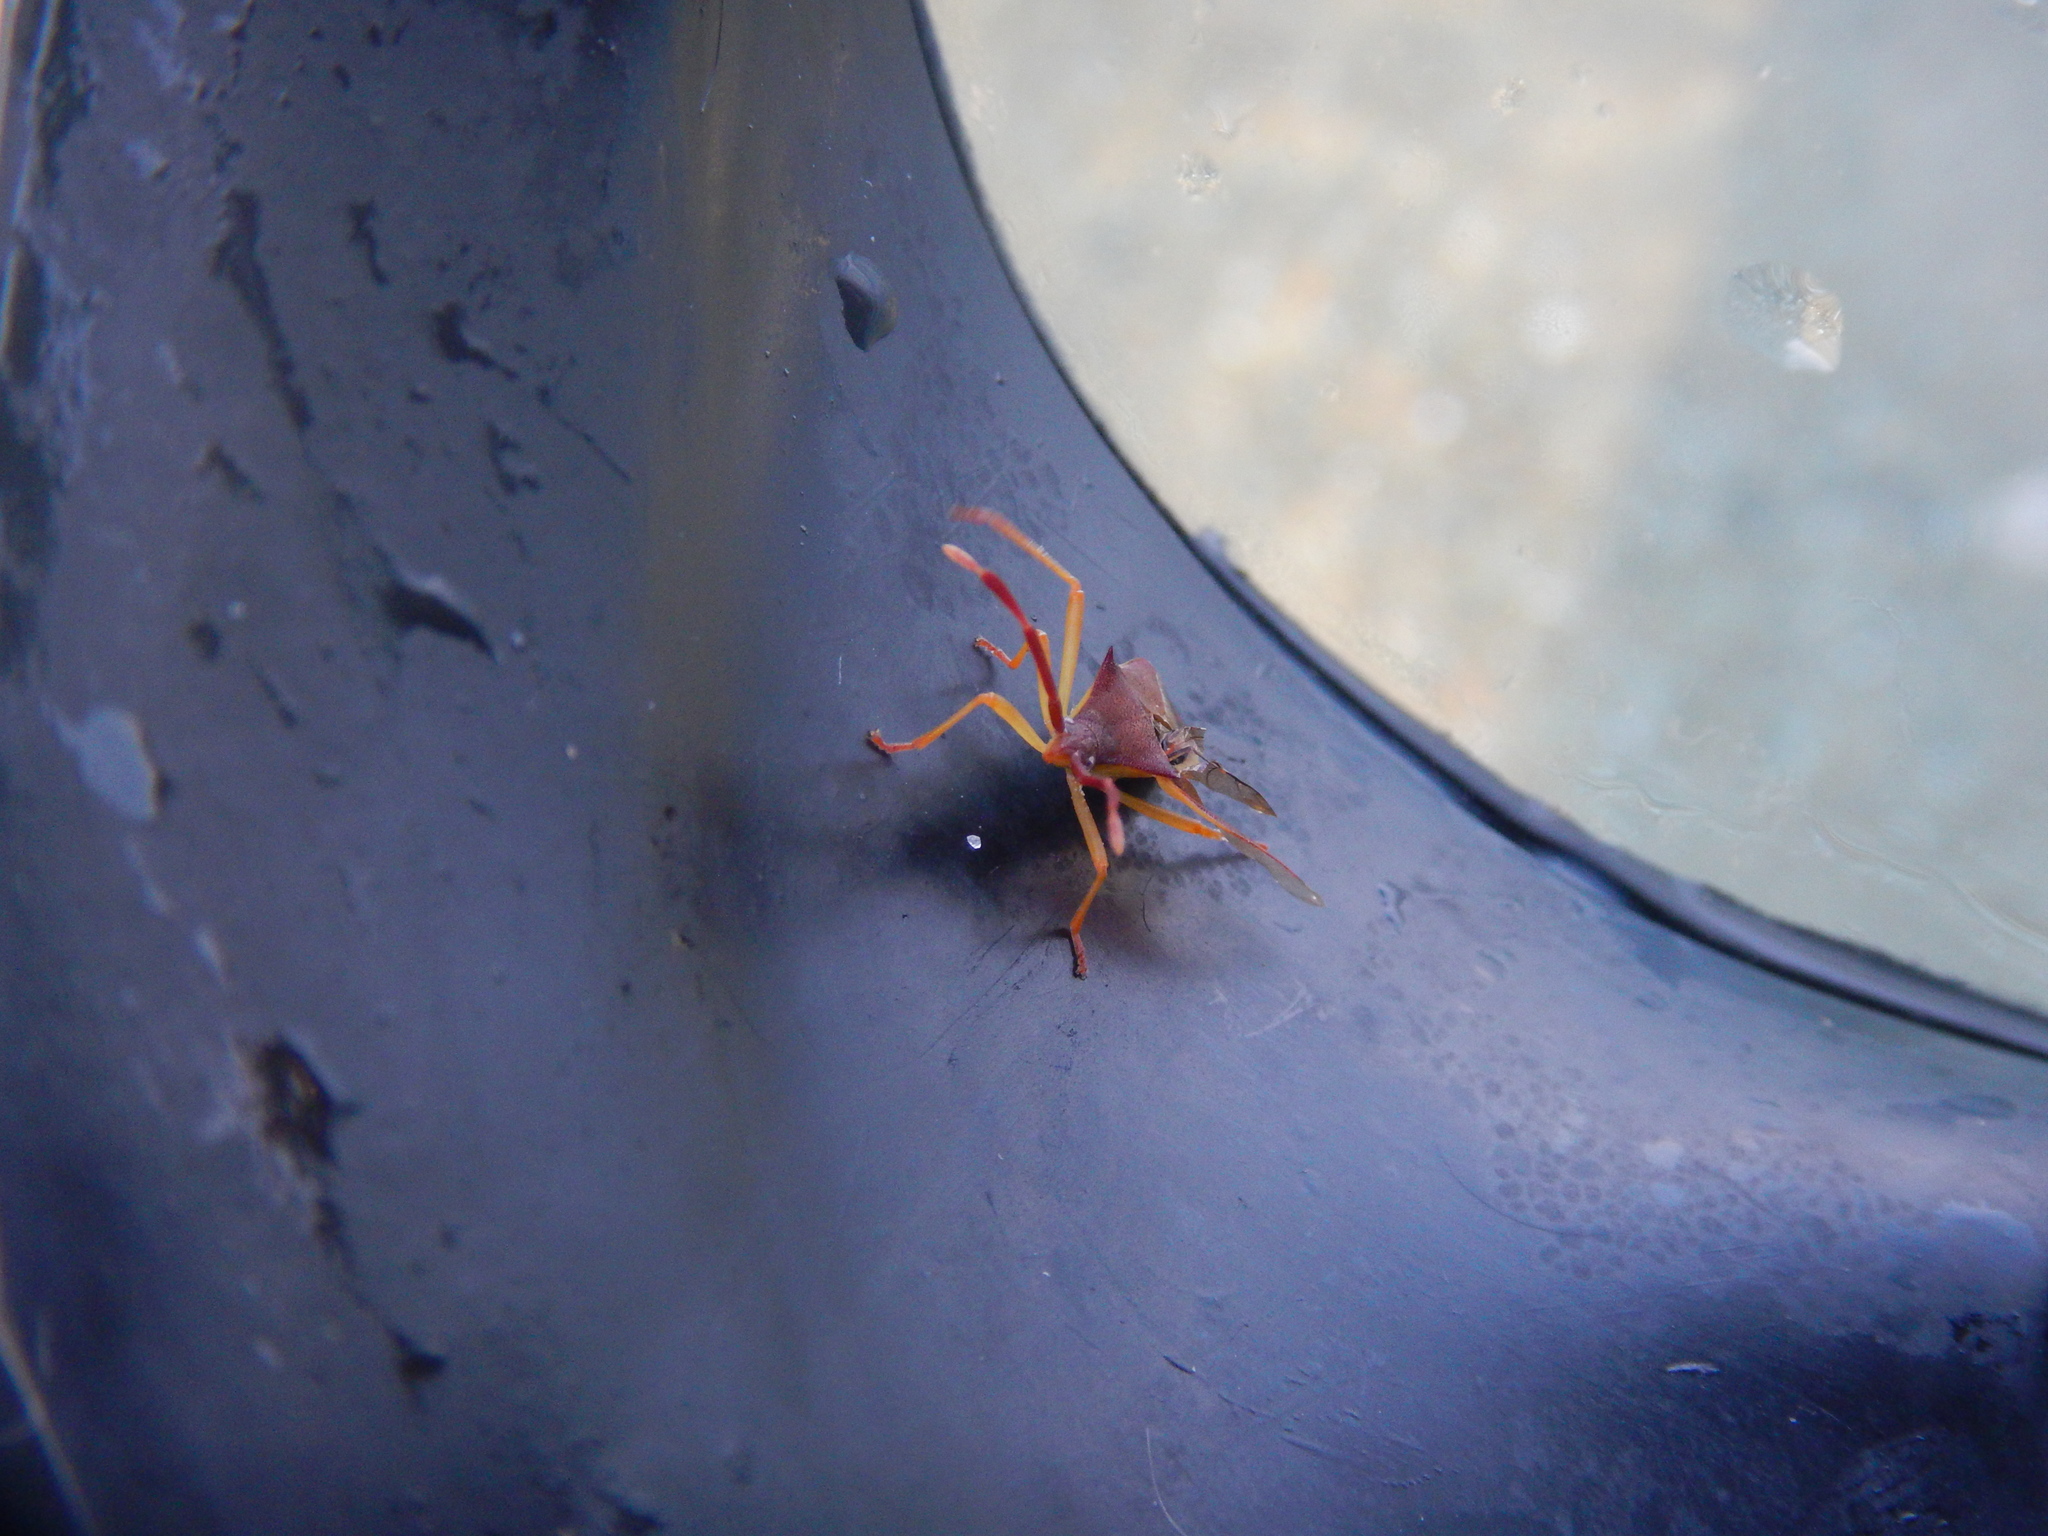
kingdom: Animalia
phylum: Arthropoda
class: Insecta
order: Hemiptera
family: Coreidae
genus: Gonocerus
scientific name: Gonocerus insidiator
